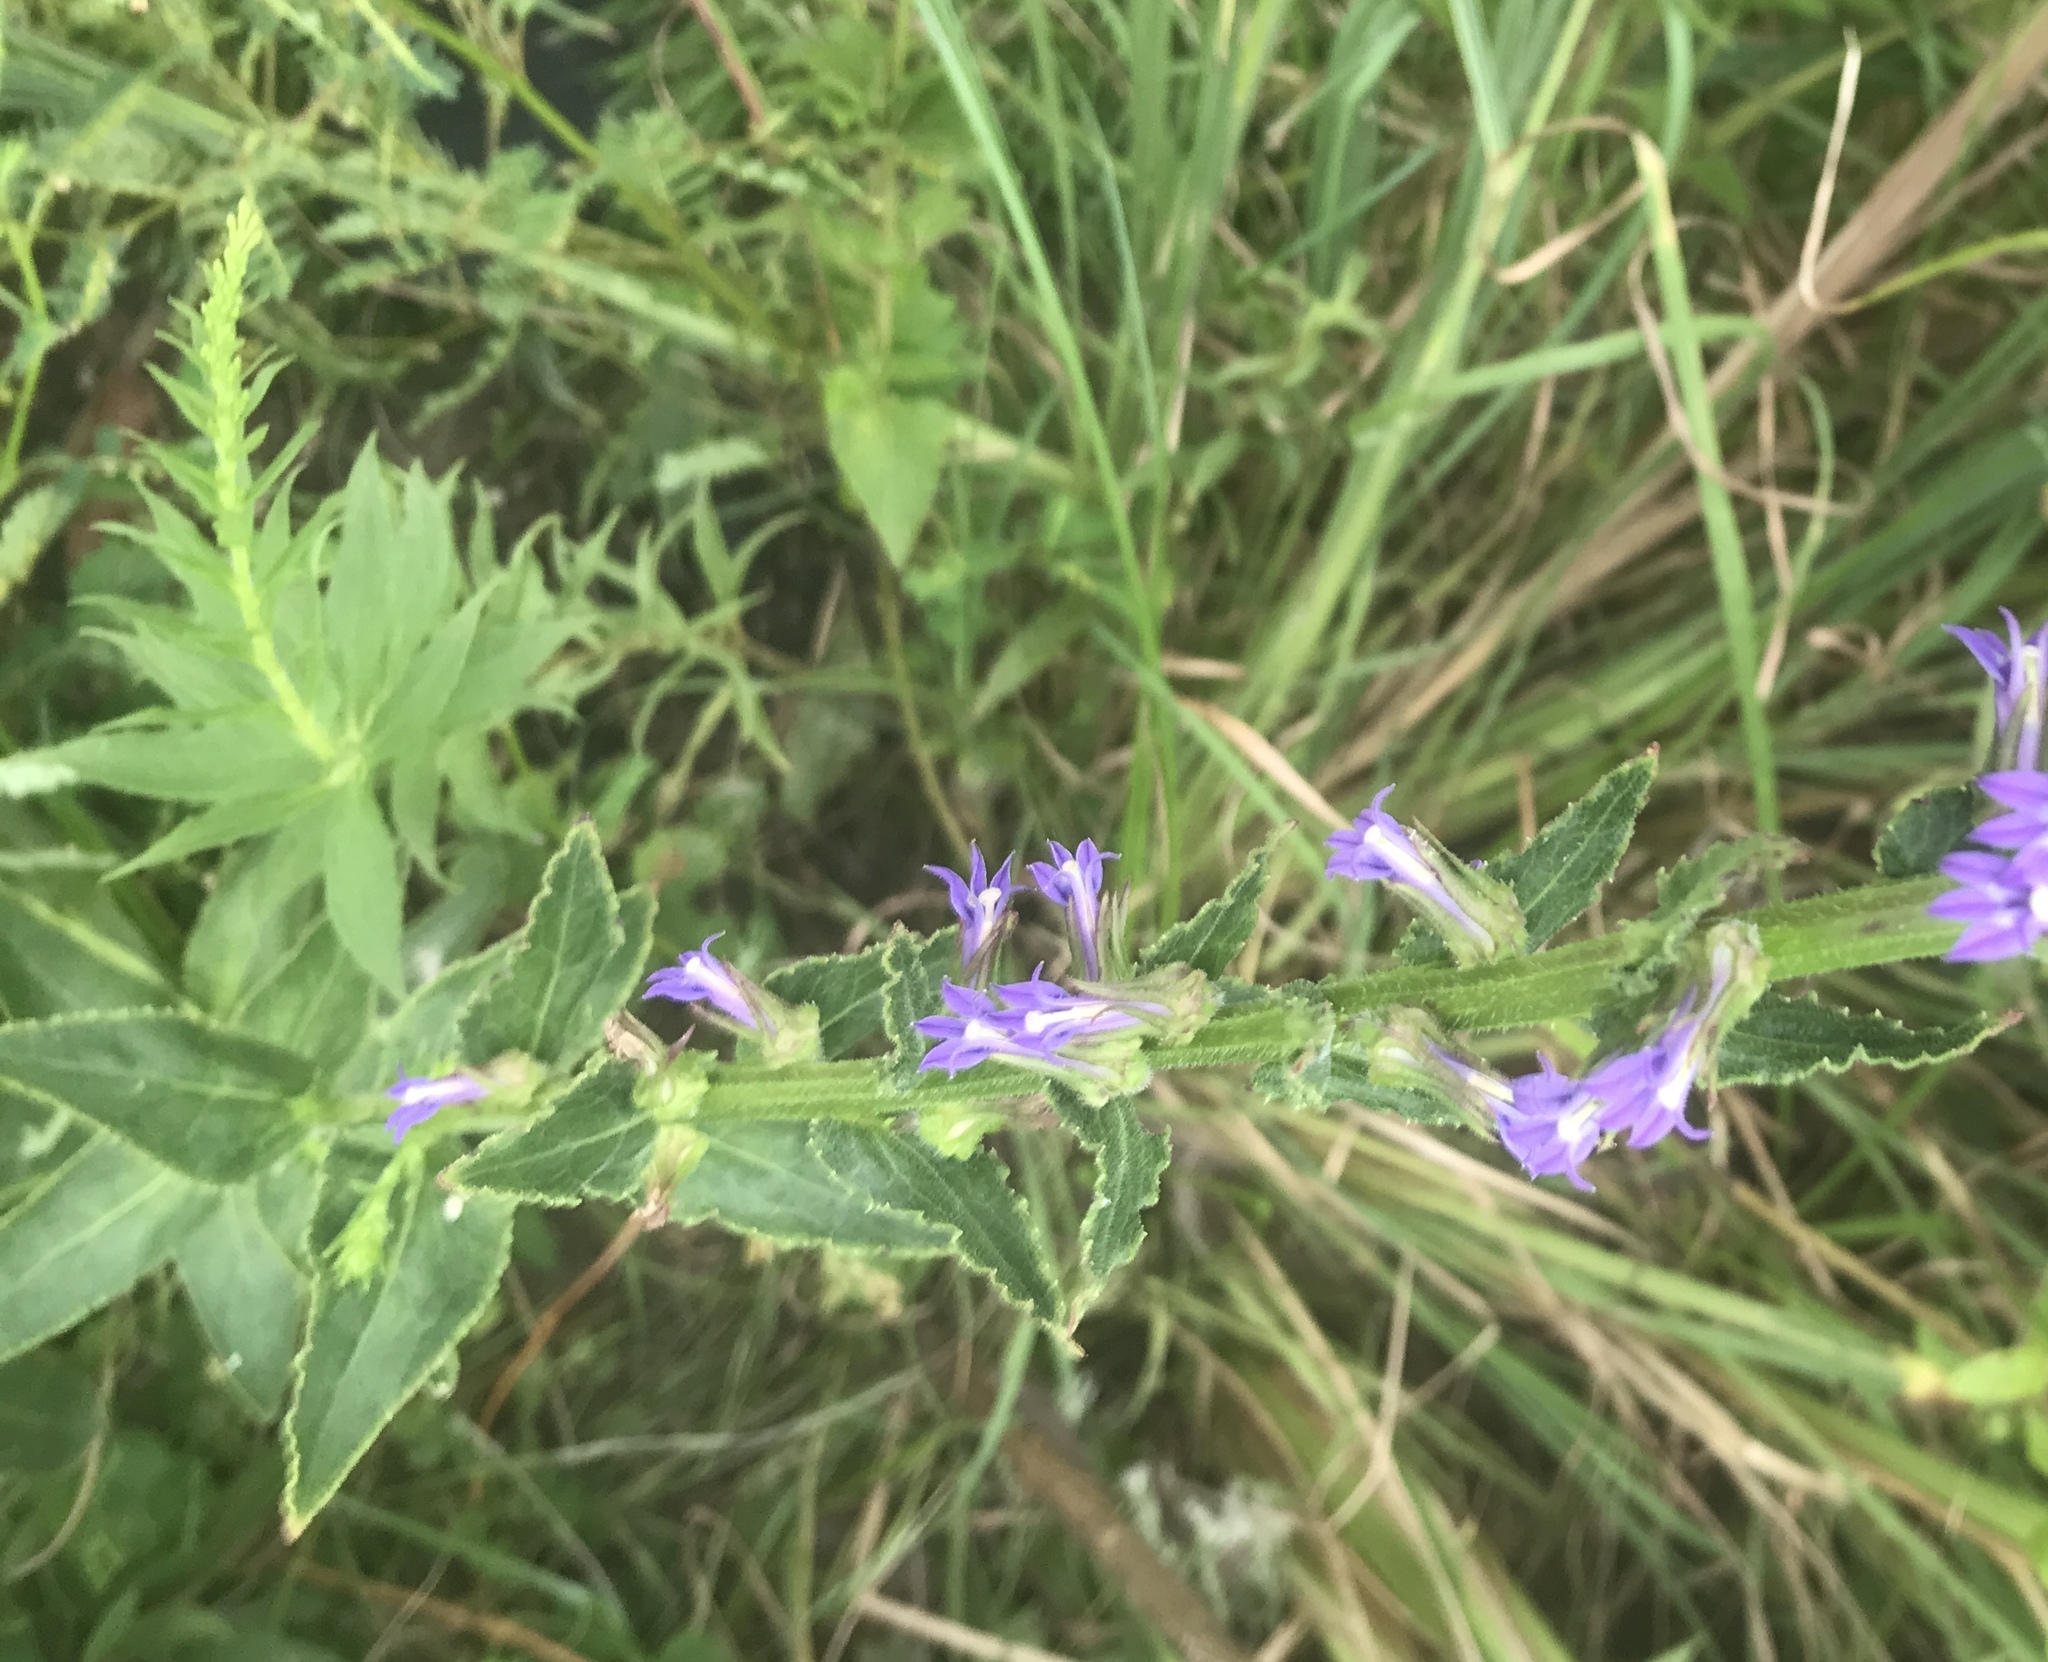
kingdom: Plantae
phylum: Tracheophyta
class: Magnoliopsida
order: Asterales
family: Campanulaceae
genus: Lobelia
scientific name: Lobelia puberula
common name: Purple dewdrop
